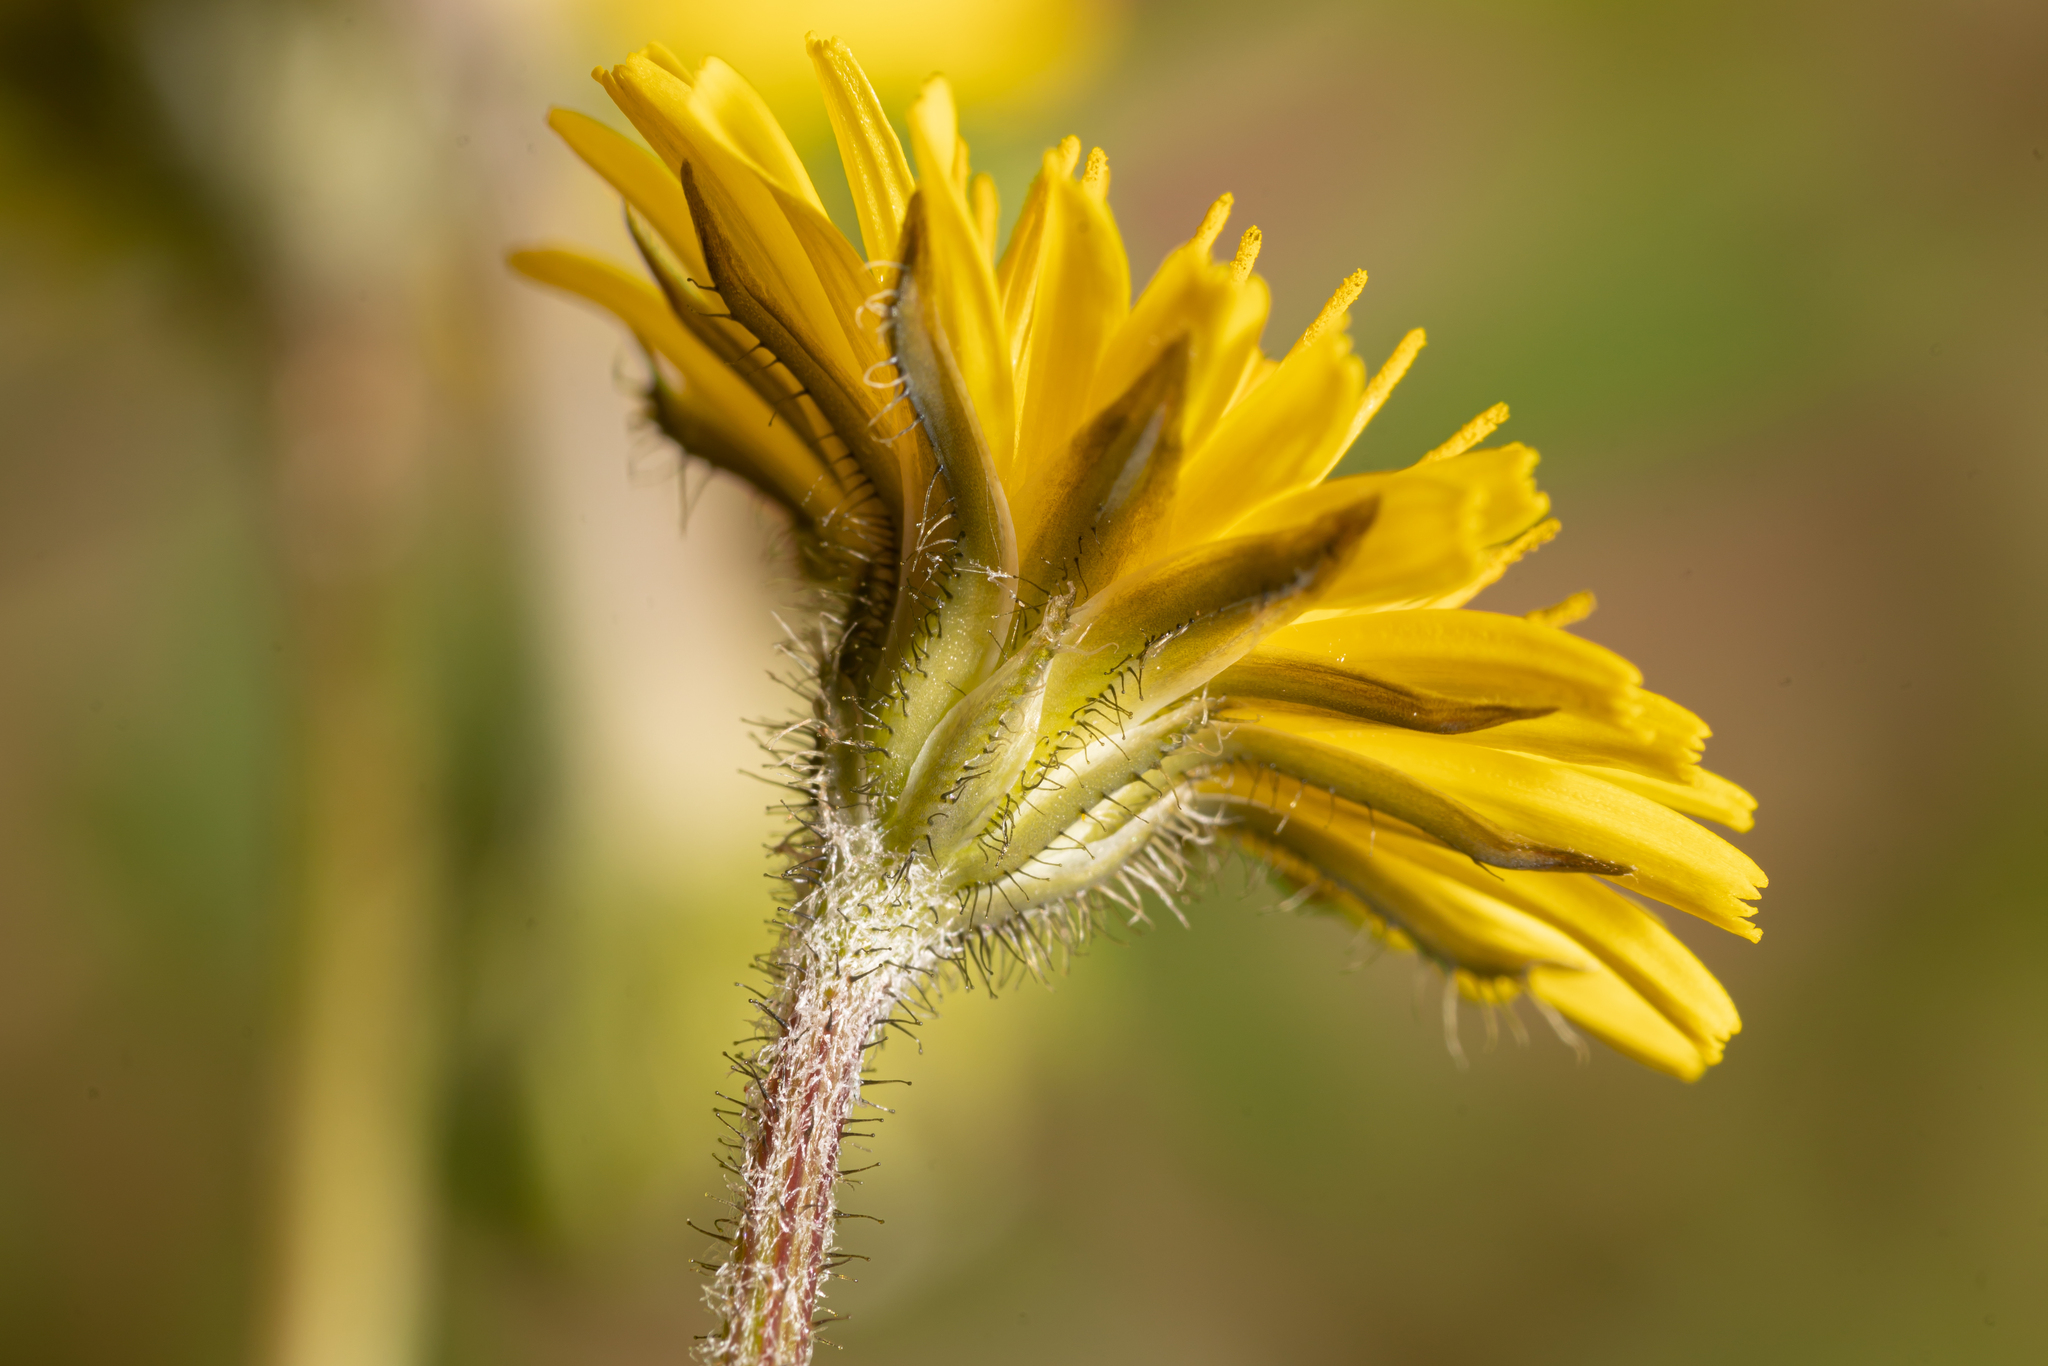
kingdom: Plantae
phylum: Tracheophyta
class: Magnoliopsida
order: Asterales
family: Asteraceae
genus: Crepis
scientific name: Crepis sancta
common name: Hawk's-beard
